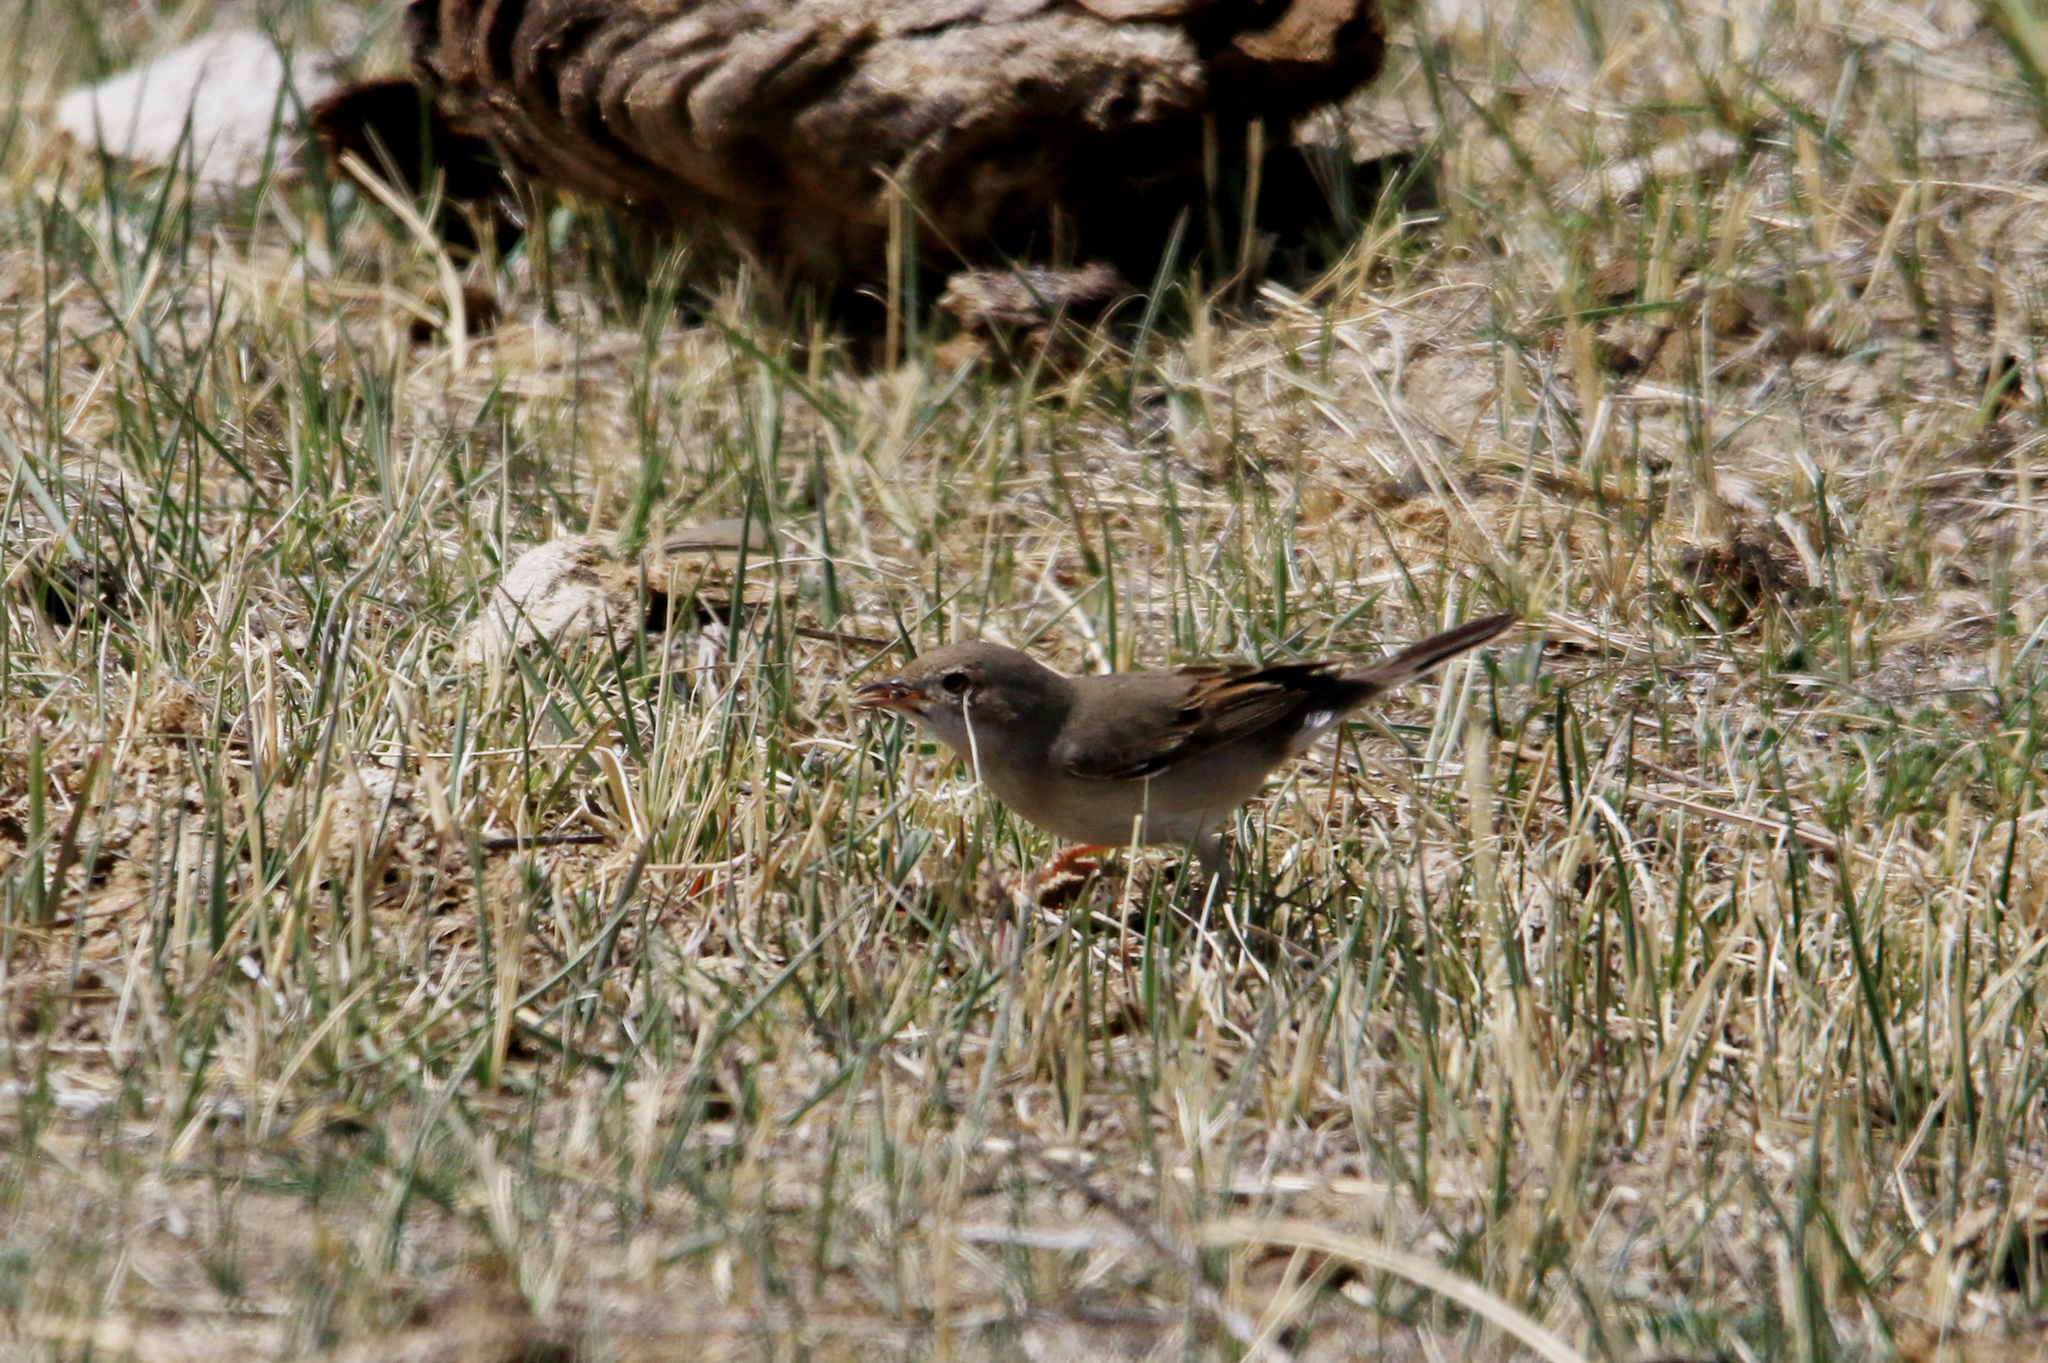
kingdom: Animalia
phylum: Chordata
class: Aves
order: Passeriformes
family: Sylviidae
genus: Sylvia
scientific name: Sylvia communis
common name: Common whitethroat
